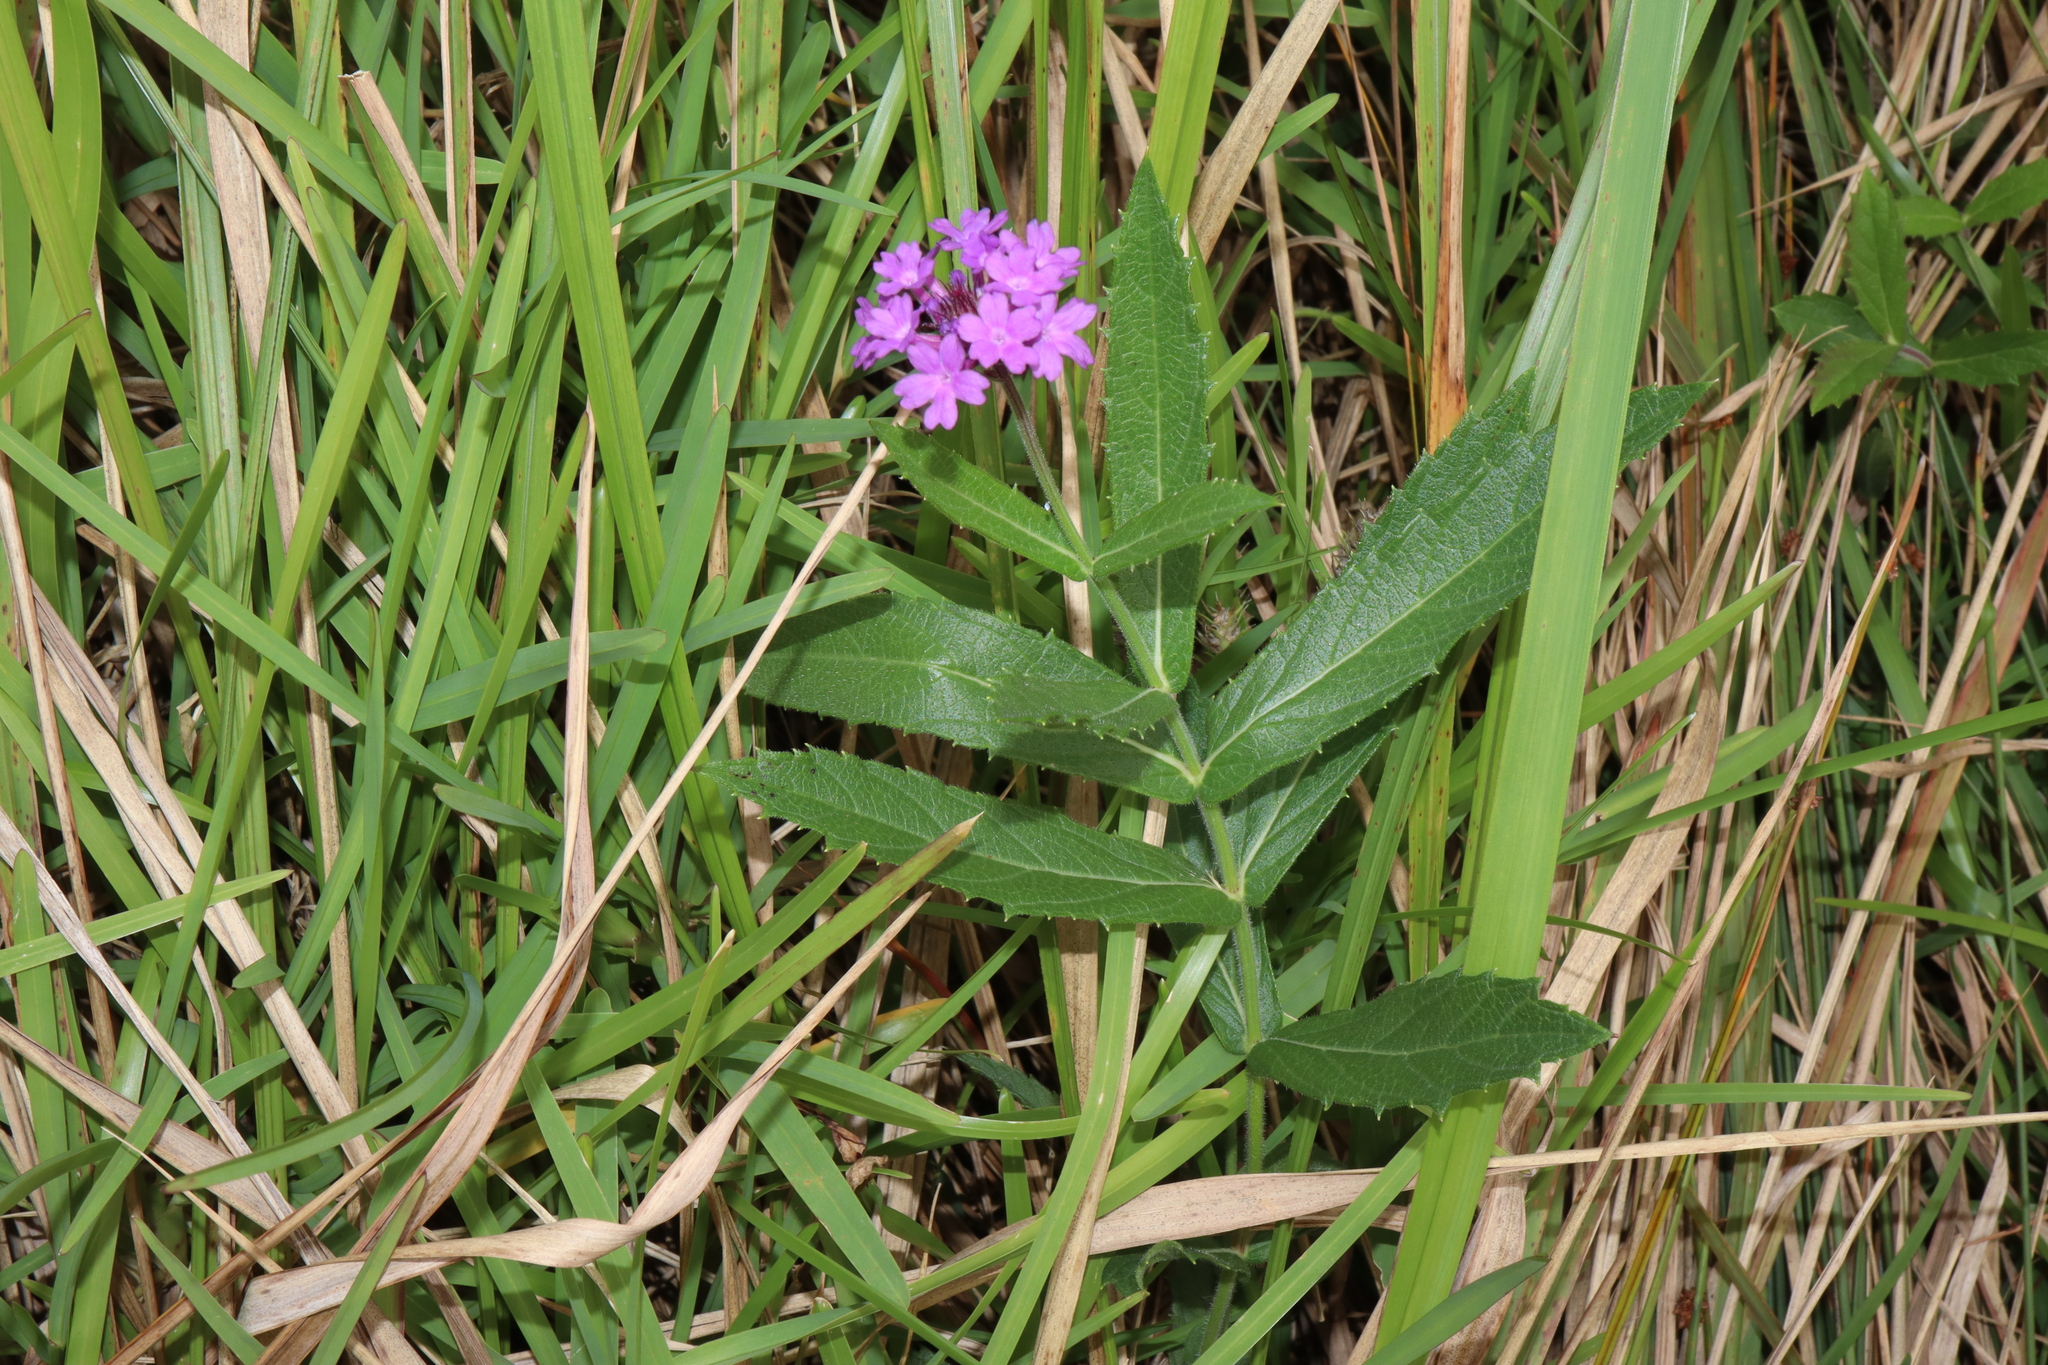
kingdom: Plantae
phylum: Tracheophyta
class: Magnoliopsida
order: Lamiales
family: Verbenaceae
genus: Verbena
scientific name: Verbena rigida
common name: Slender vervain
